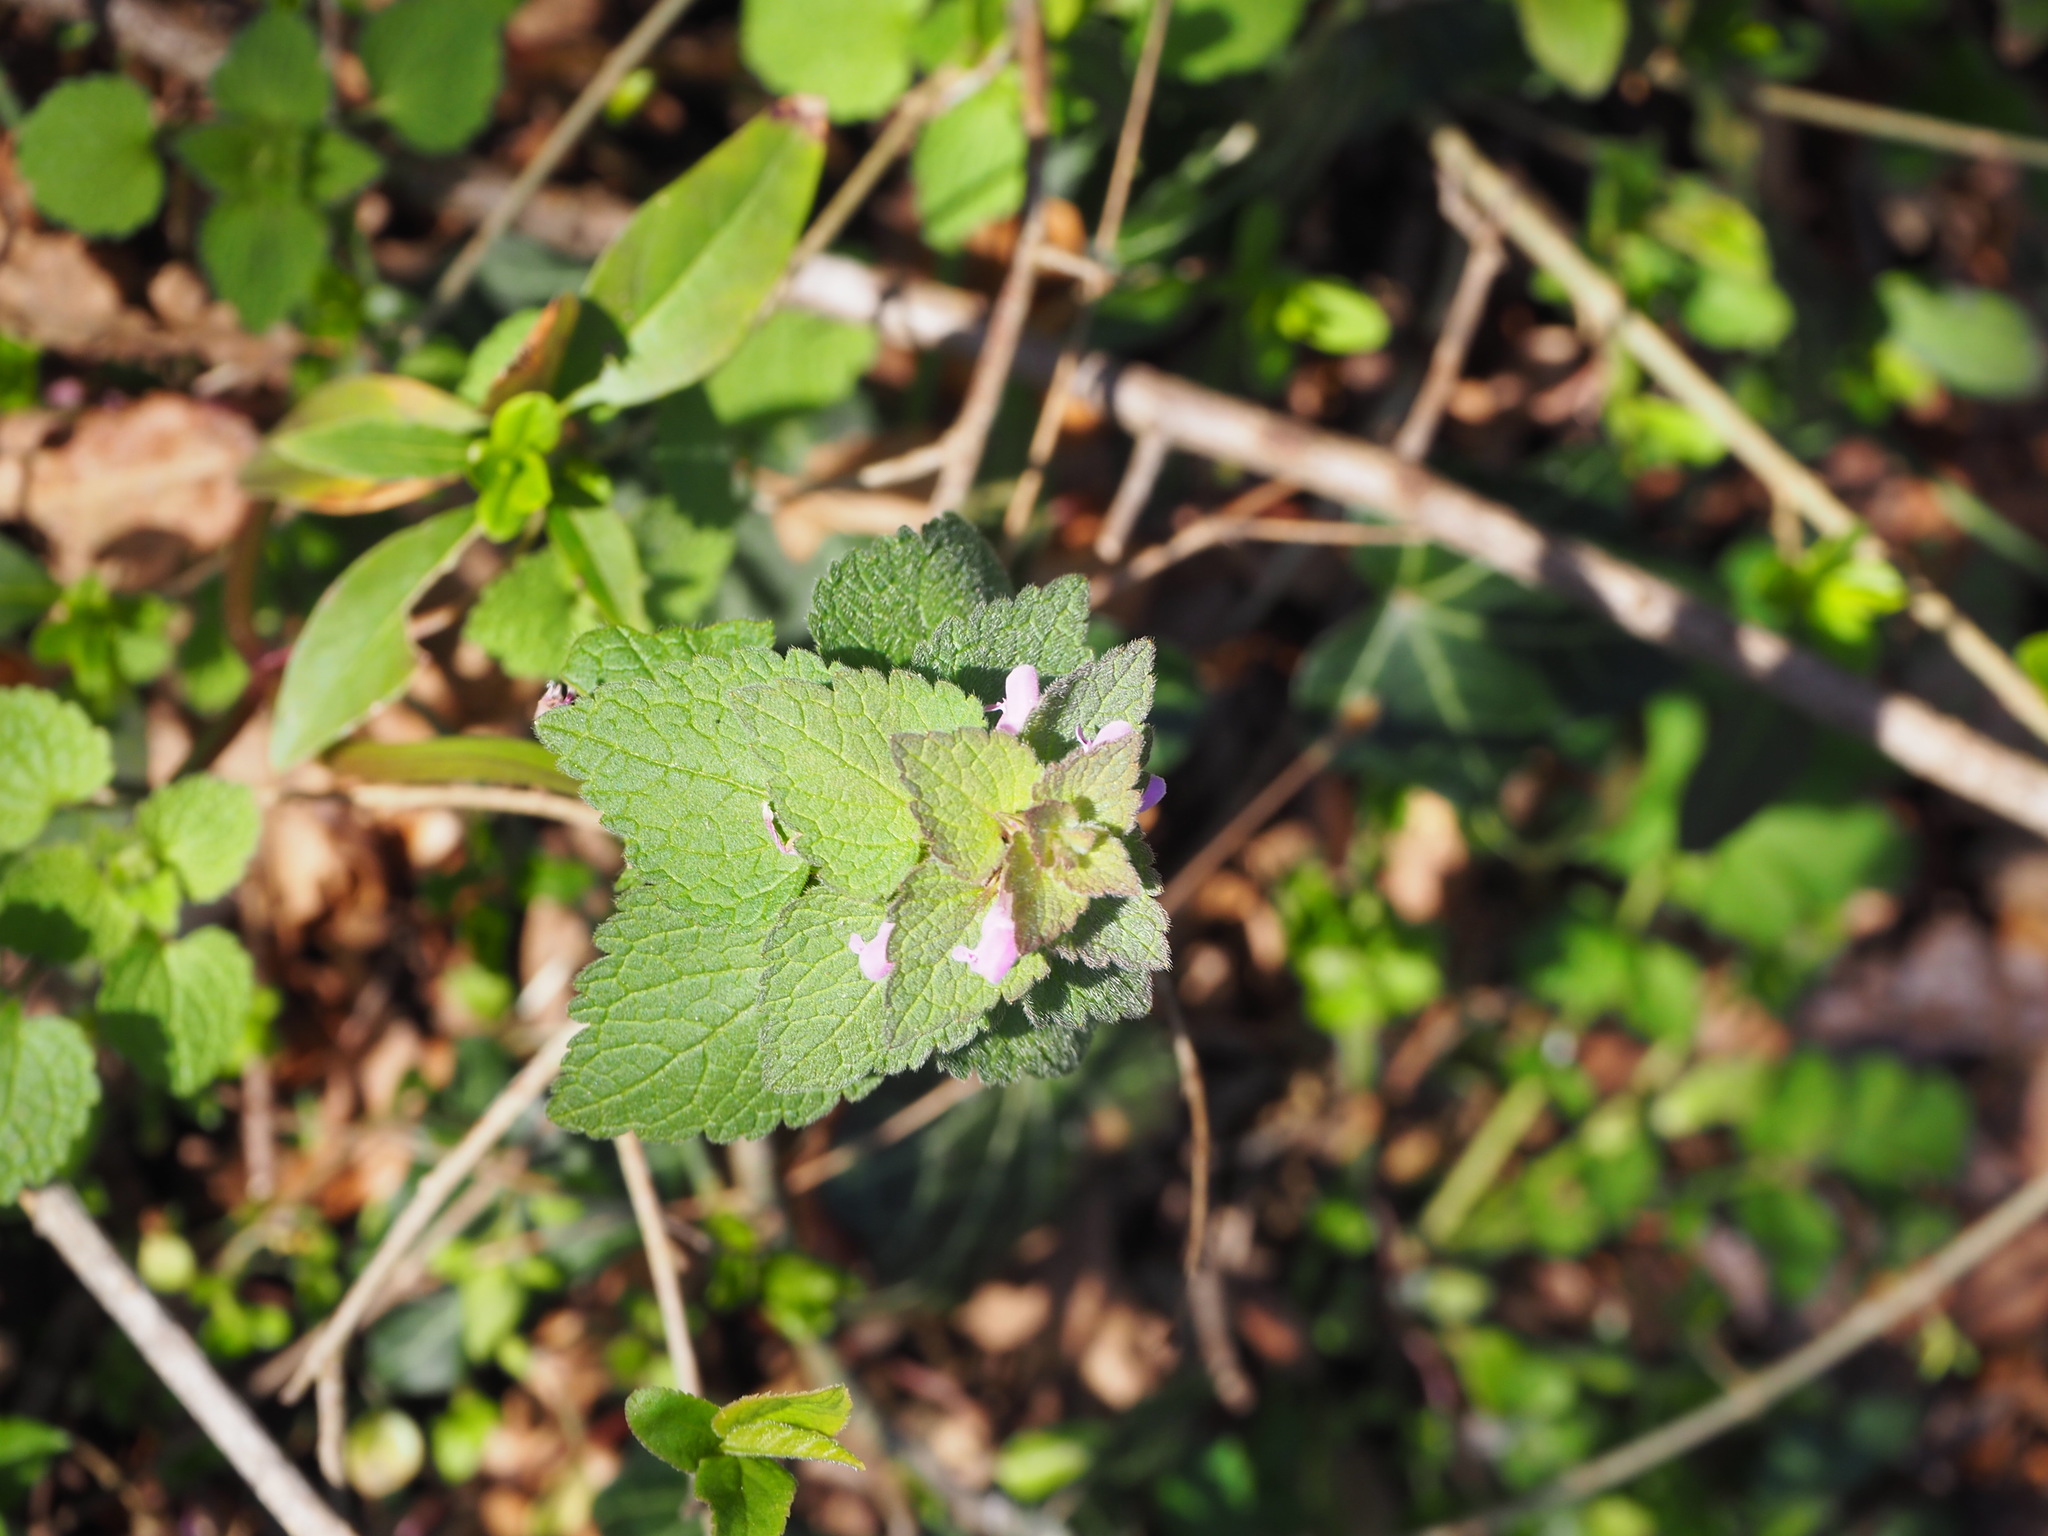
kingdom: Plantae
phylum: Tracheophyta
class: Magnoliopsida
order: Lamiales
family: Lamiaceae
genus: Lamium
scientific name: Lamium purpureum
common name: Red dead-nettle
